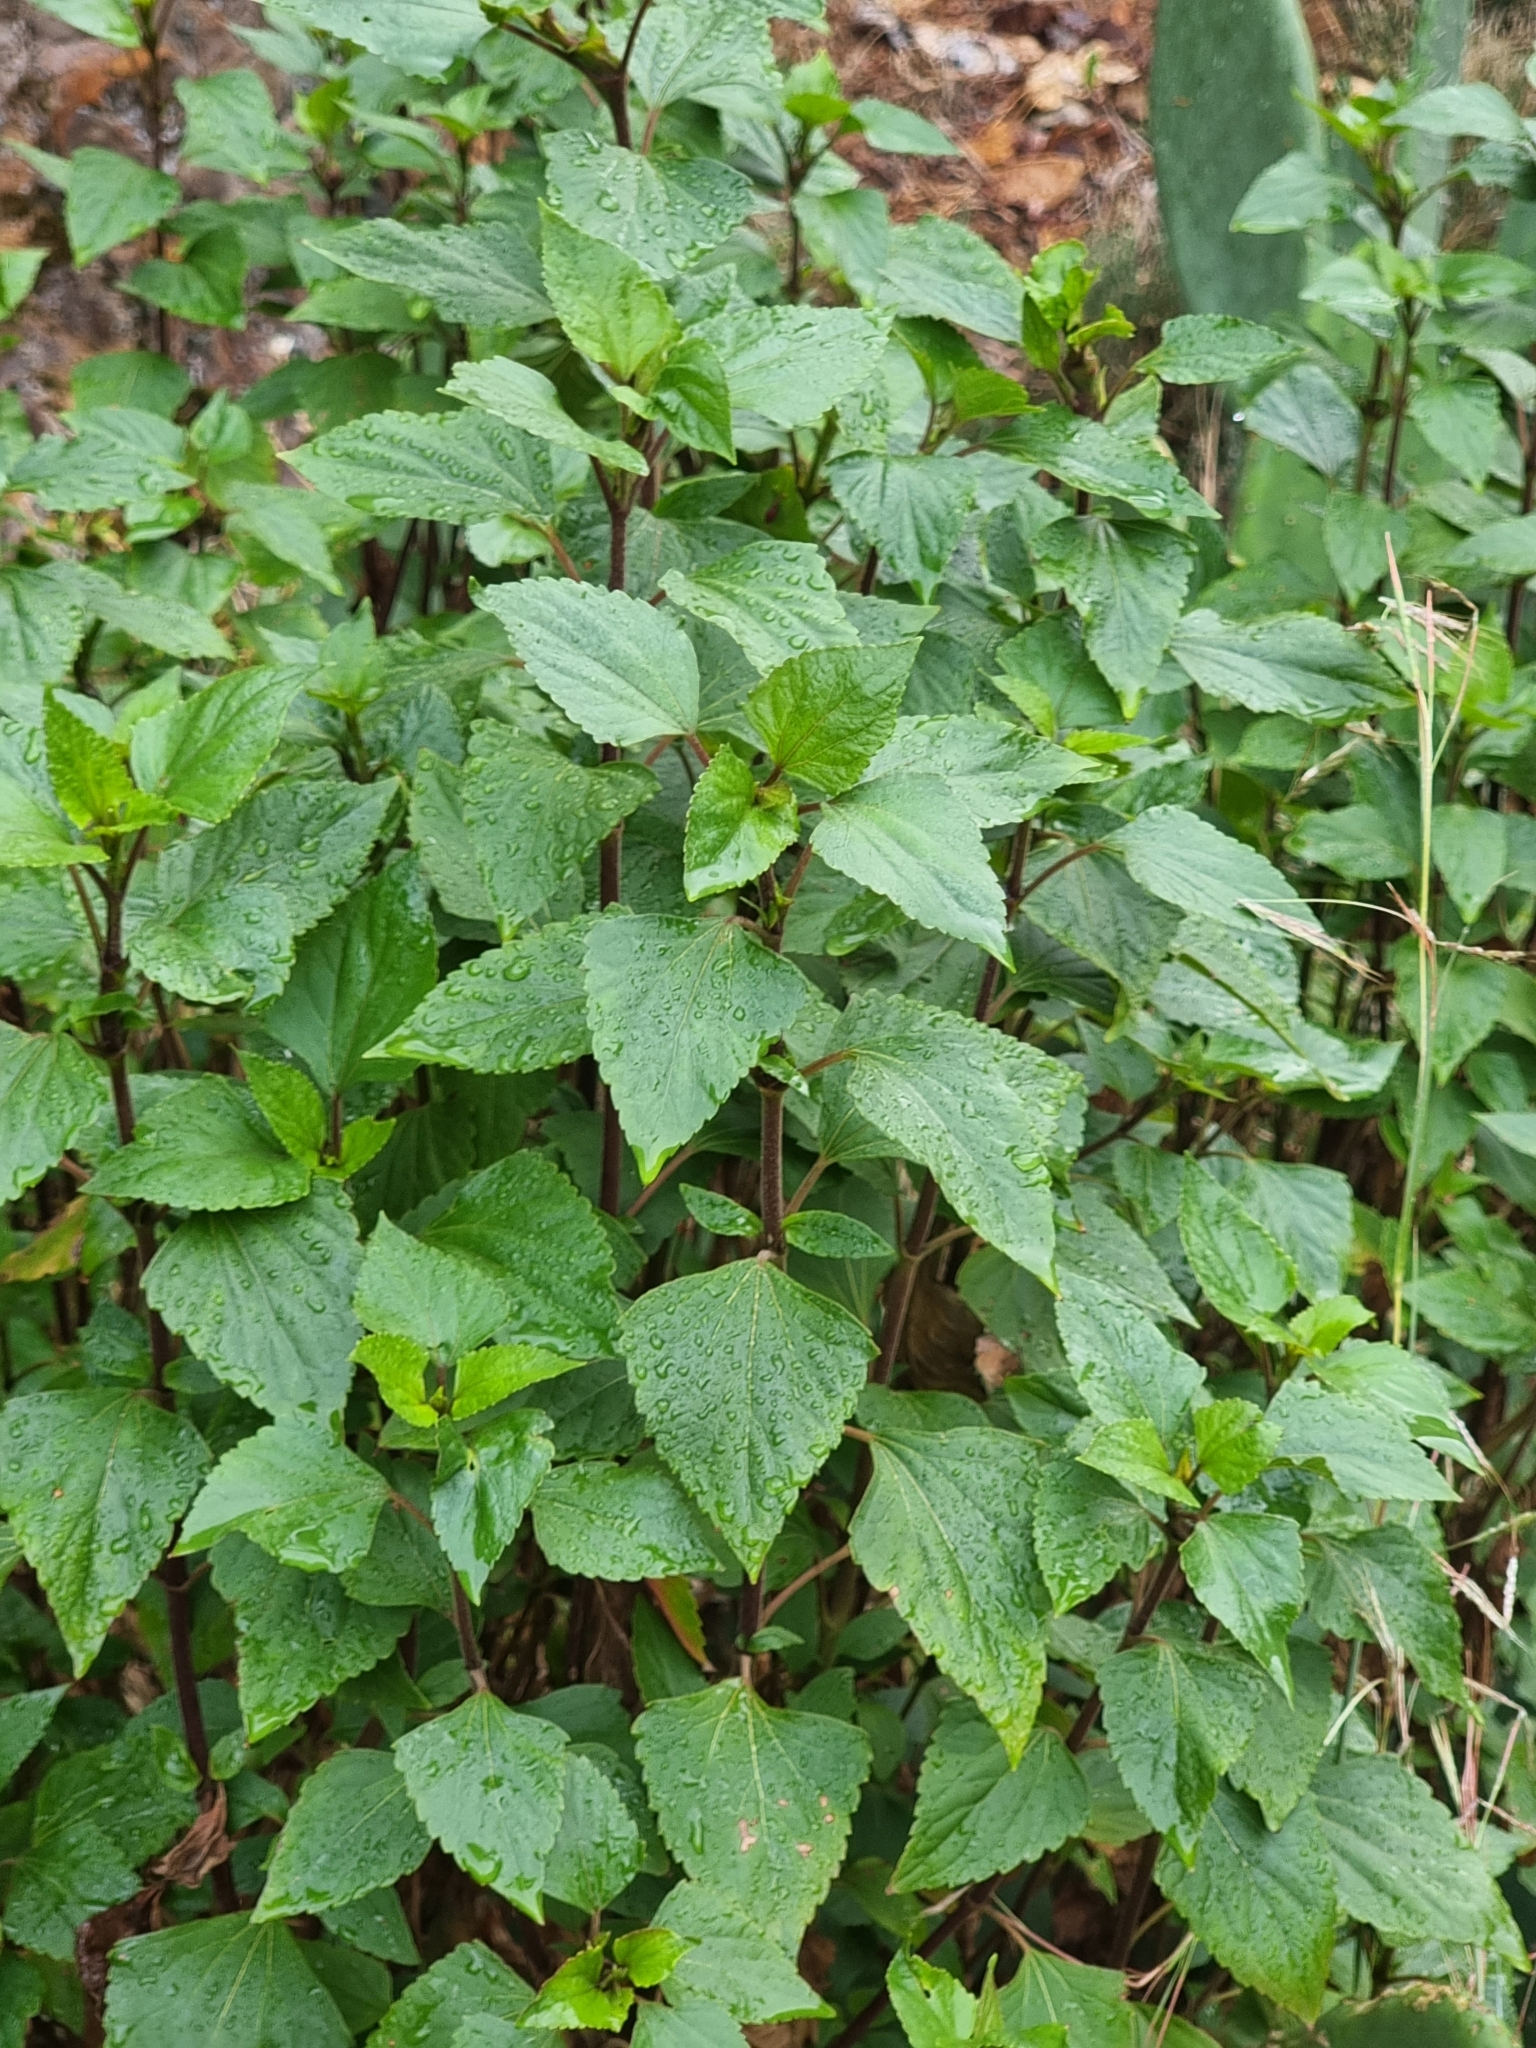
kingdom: Plantae
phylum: Tracheophyta
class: Magnoliopsida
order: Asterales
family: Asteraceae
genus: Ageratina
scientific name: Ageratina adenophora
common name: Sticky snakeroot
